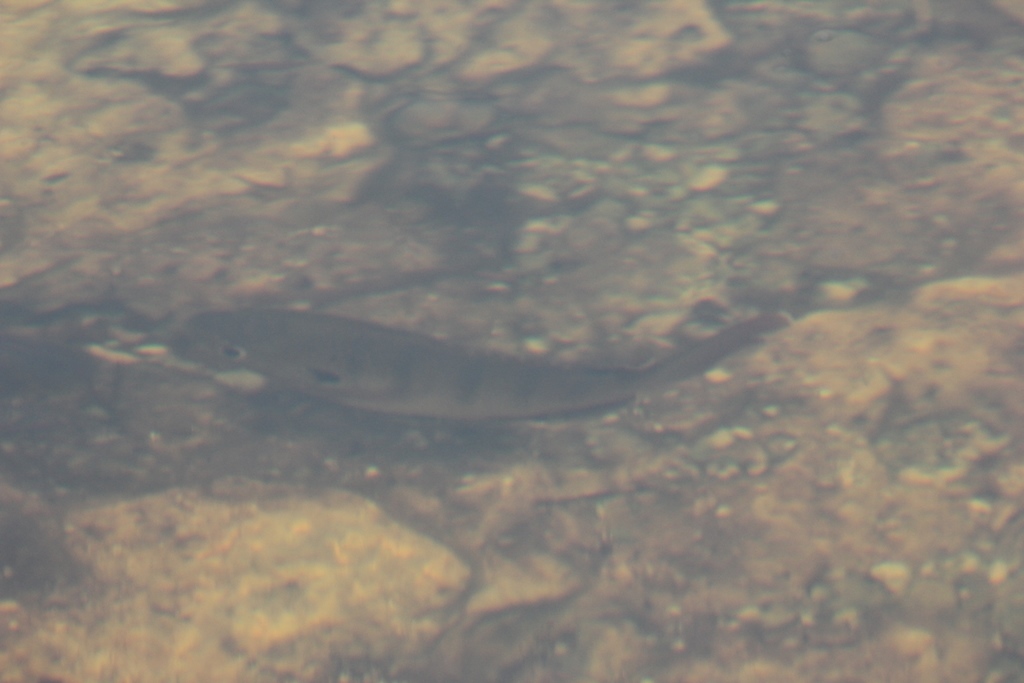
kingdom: Animalia
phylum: Chordata
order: Perciformes
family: Centrarchidae
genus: Lepomis
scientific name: Lepomis macrochirus
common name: Bluegill
